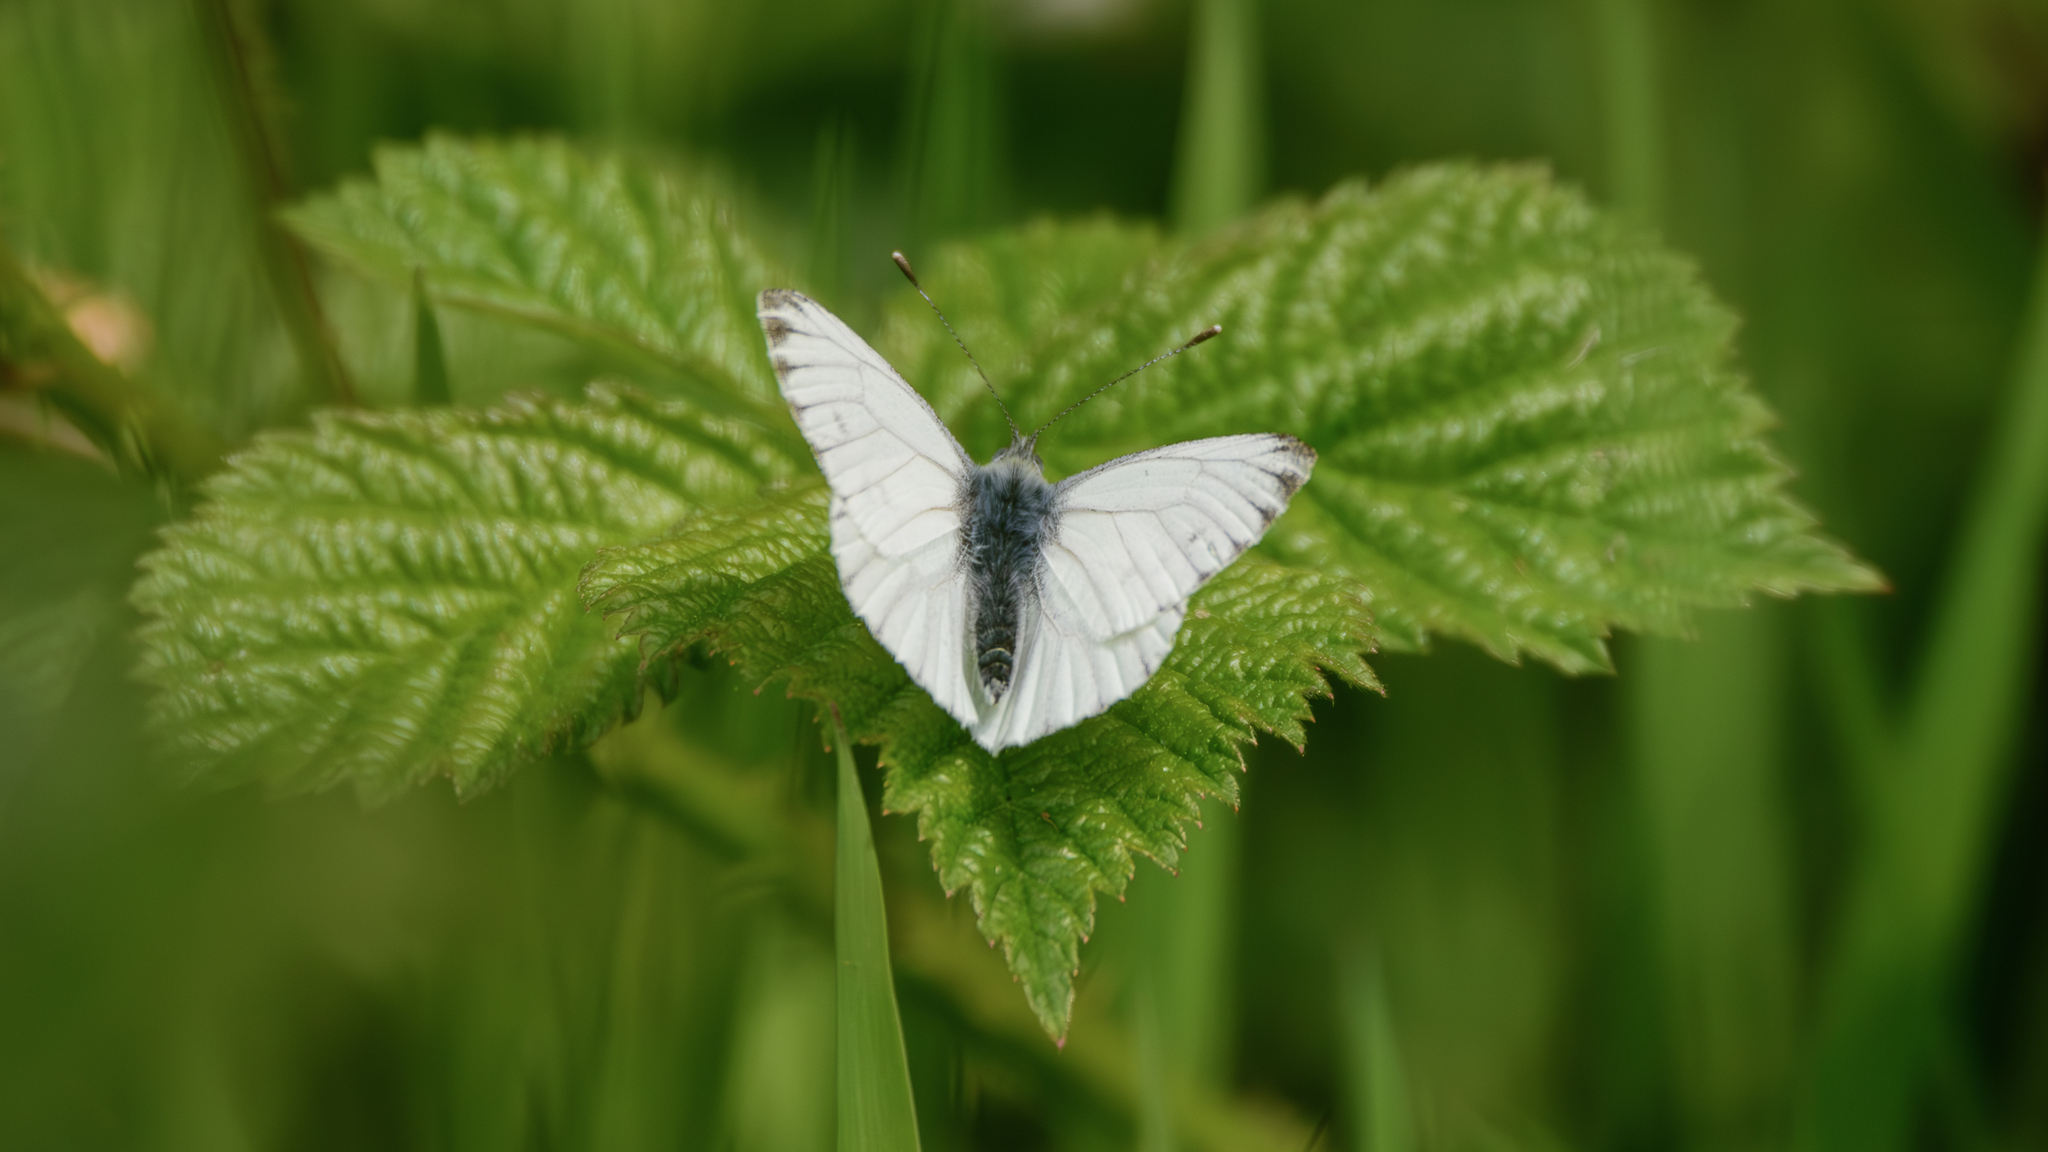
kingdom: Animalia
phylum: Arthropoda
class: Insecta
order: Lepidoptera
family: Pieridae
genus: Pieris
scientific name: Pieris napi
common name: Green-veined white
